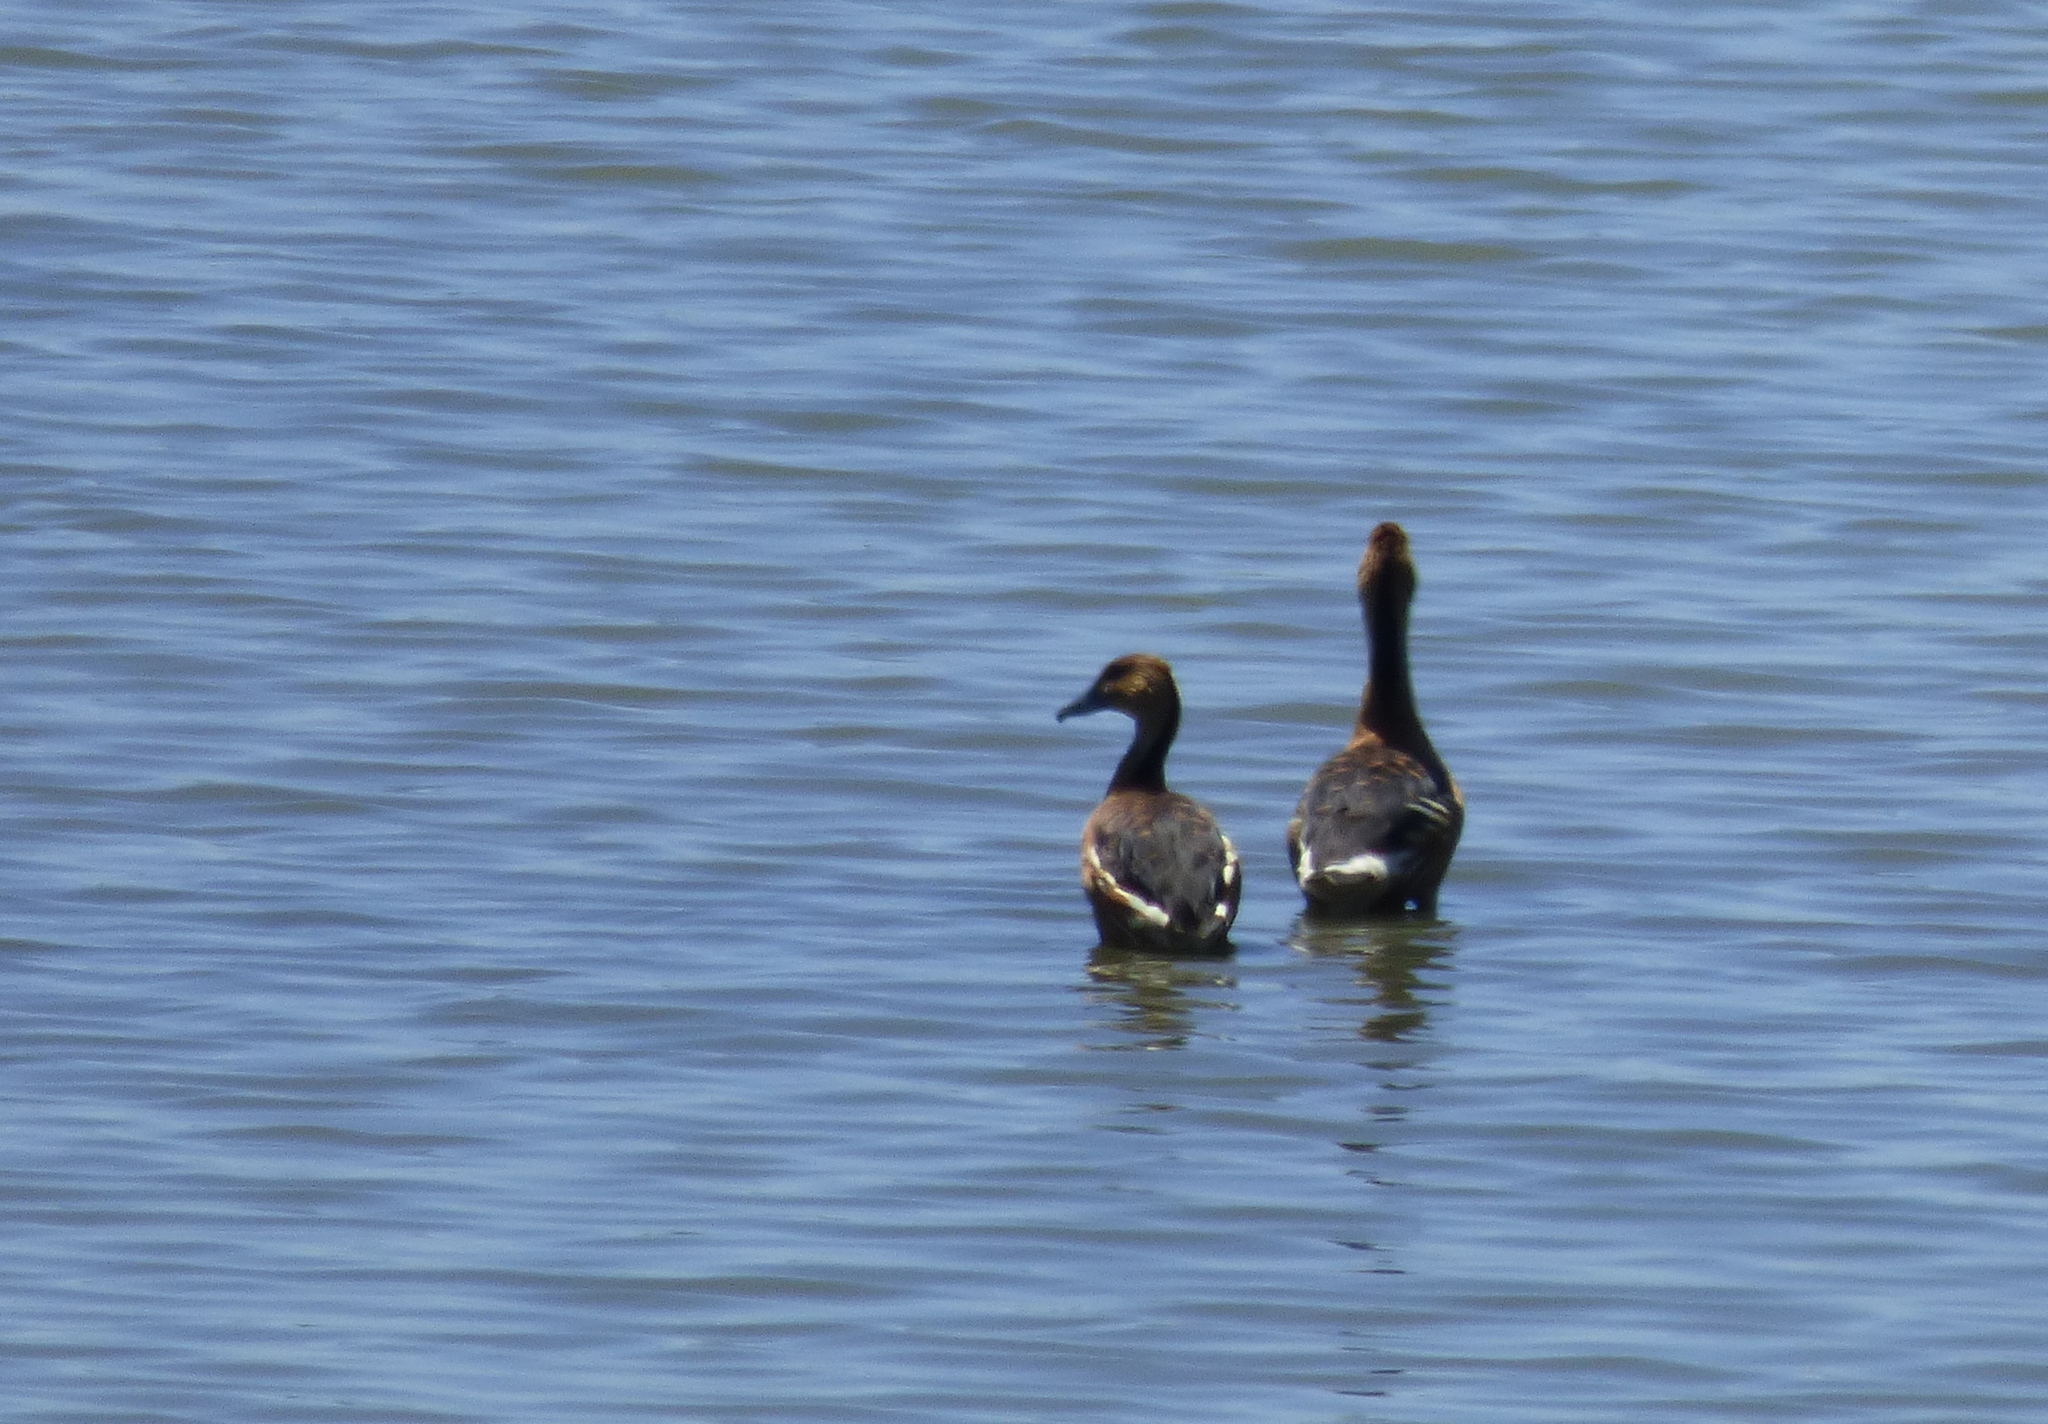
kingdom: Animalia
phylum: Chordata
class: Aves
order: Anseriformes
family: Anatidae
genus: Dendrocygna
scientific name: Dendrocygna bicolor
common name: Fulvous whistling duck
